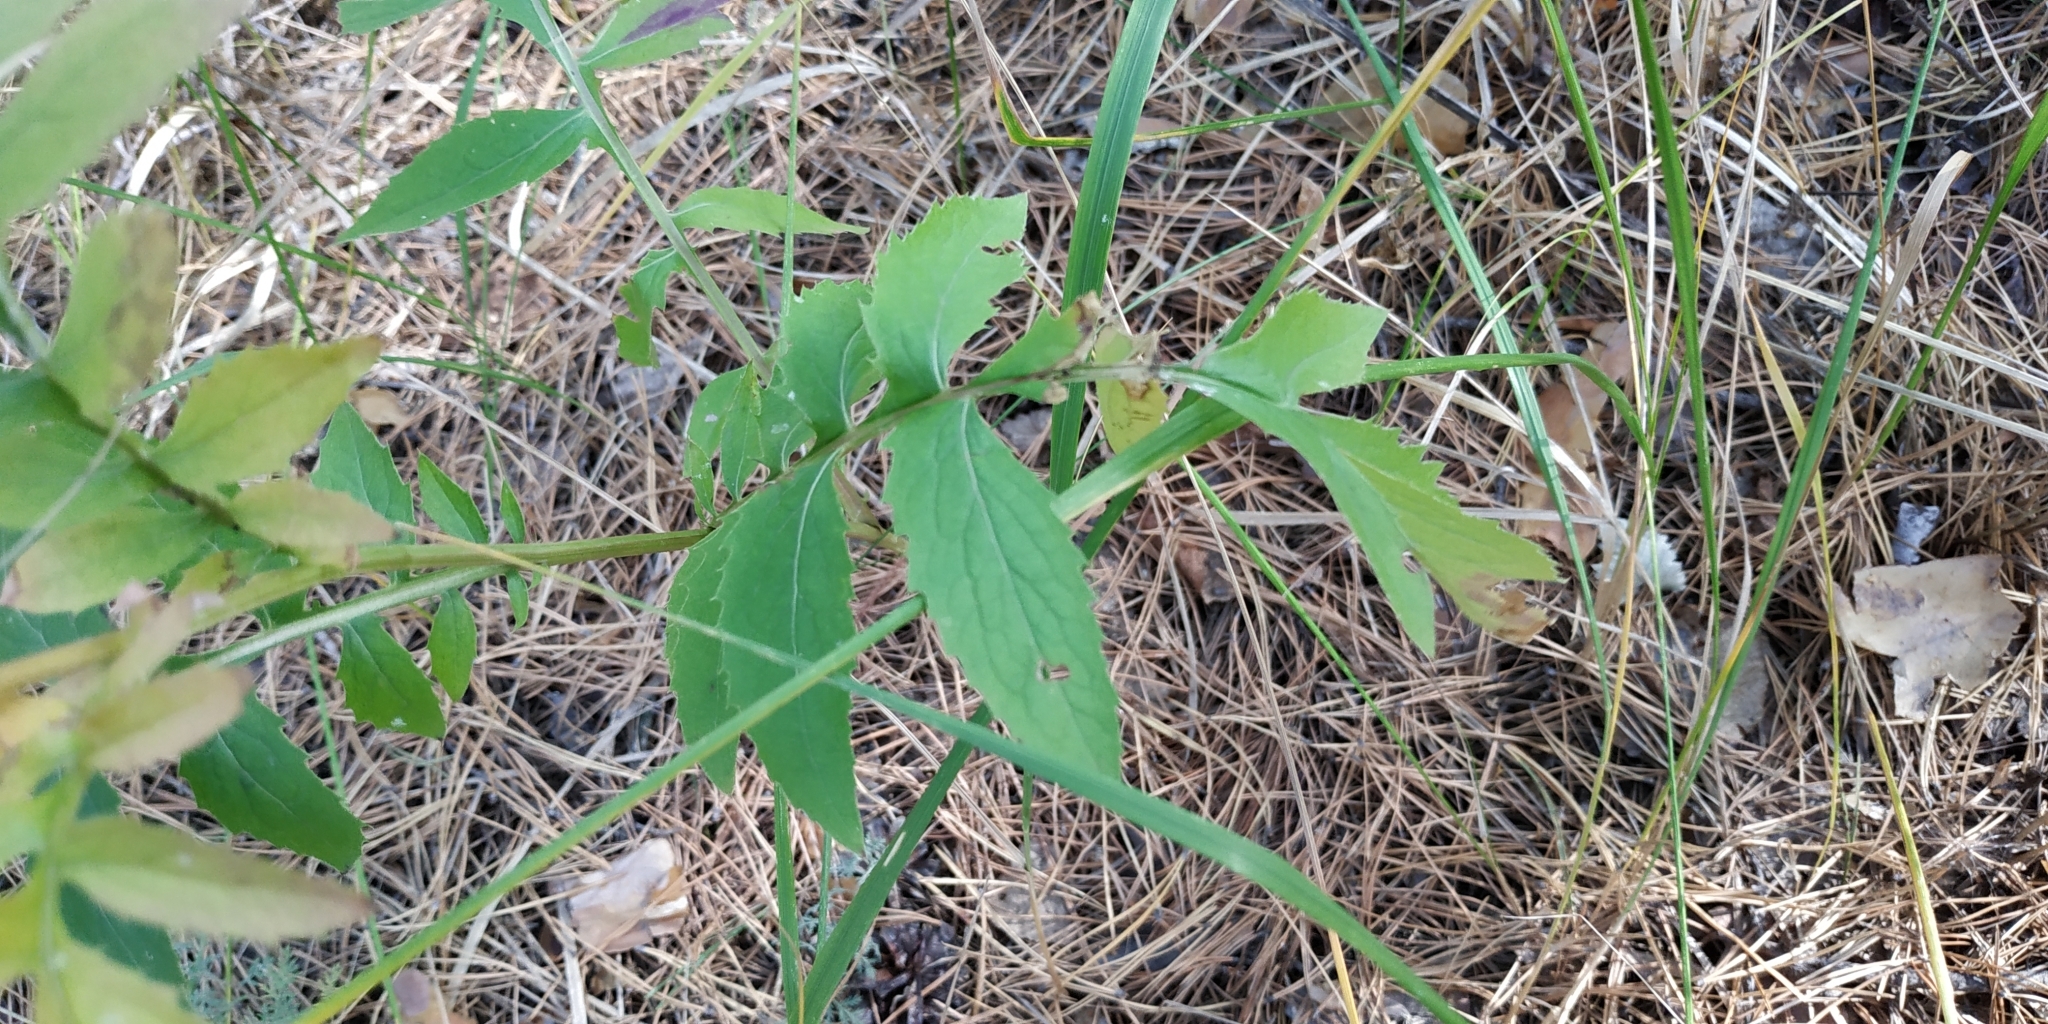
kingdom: Plantae
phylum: Tracheophyta
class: Magnoliopsida
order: Asterales
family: Asteraceae
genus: Serratula
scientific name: Serratula coronata
